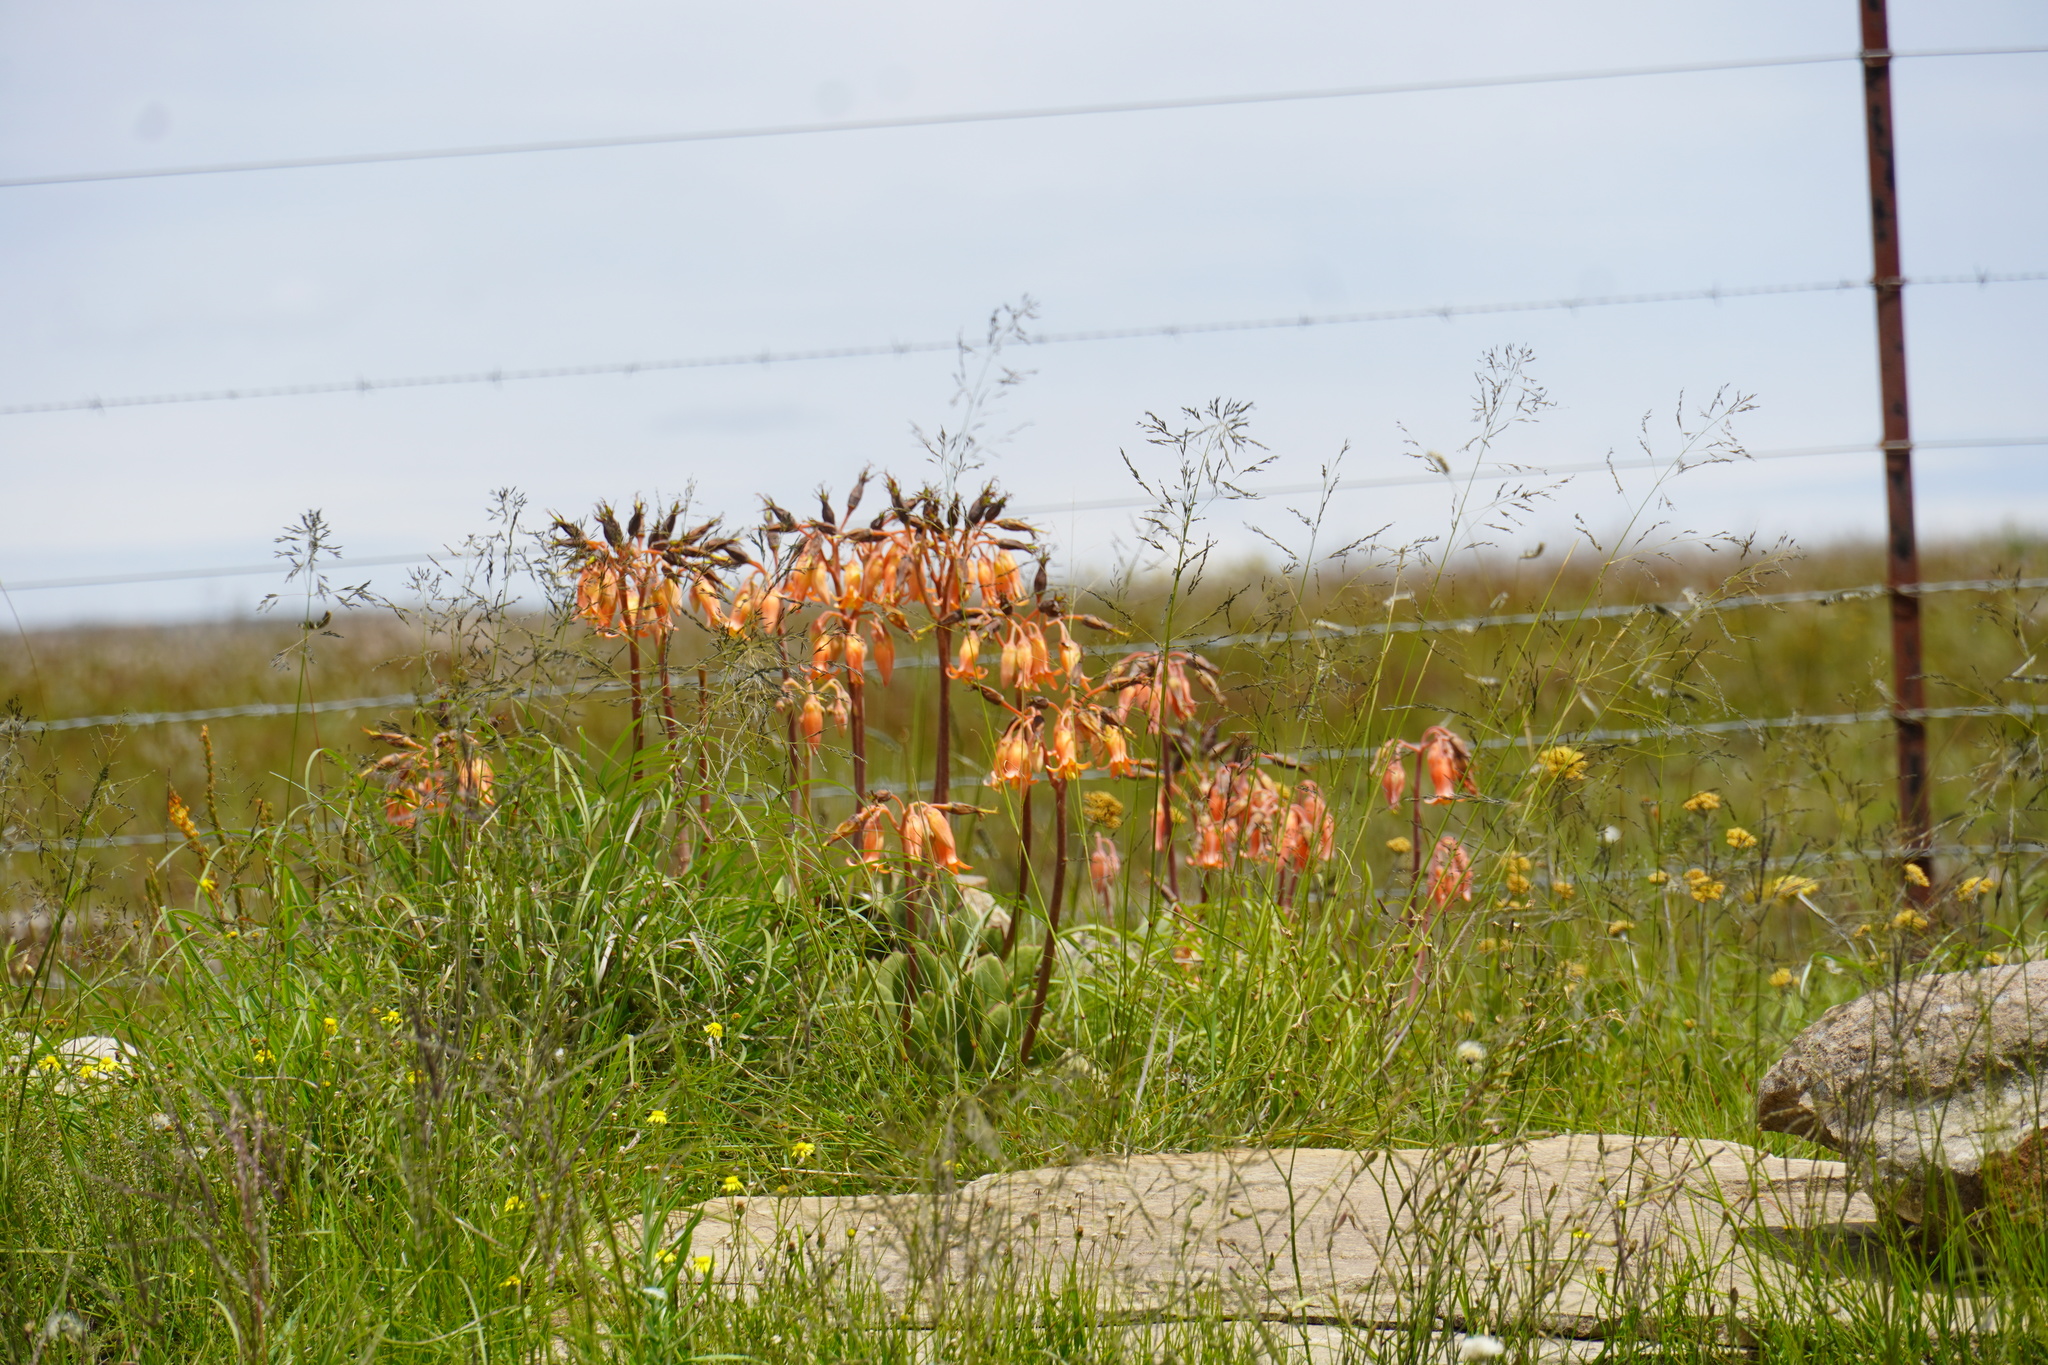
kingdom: Plantae
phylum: Tracheophyta
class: Magnoliopsida
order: Saxifragales
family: Crassulaceae
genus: Cotyledon
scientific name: Cotyledon orbiculata
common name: Pig's ear
